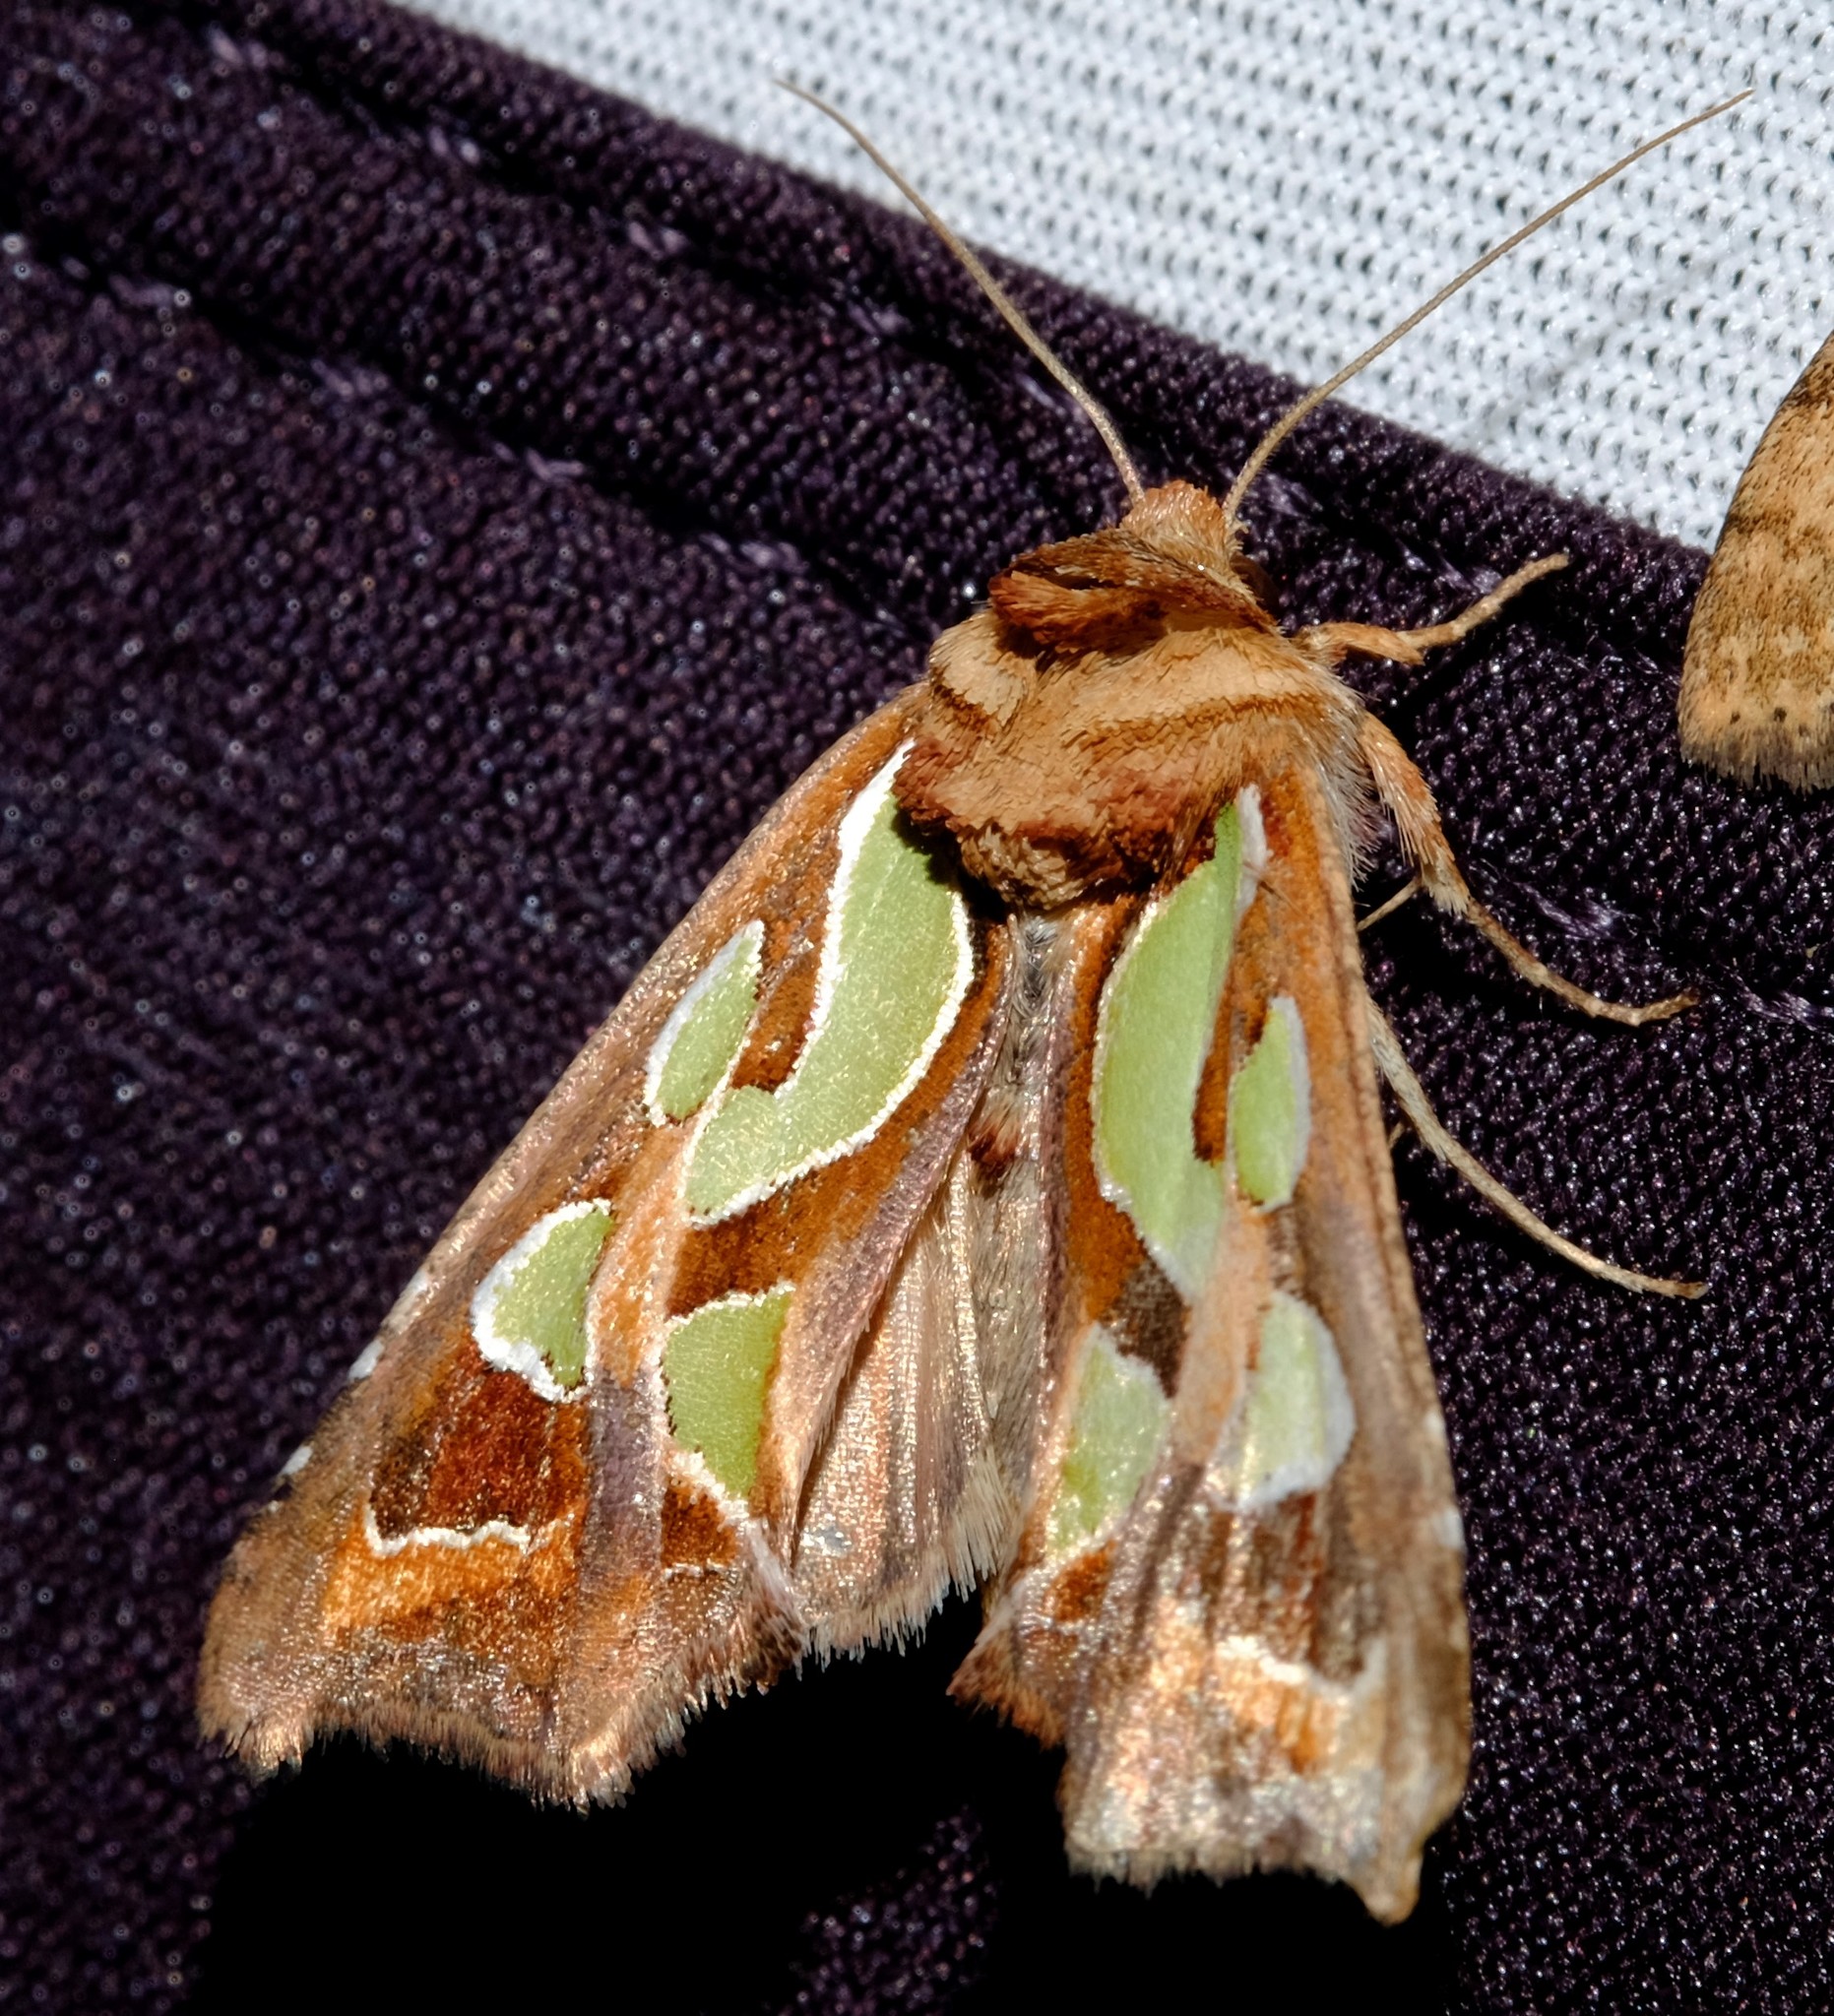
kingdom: Animalia
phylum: Arthropoda
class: Insecta
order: Lepidoptera
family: Noctuidae
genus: Cosmodes
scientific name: Cosmodes elegans
